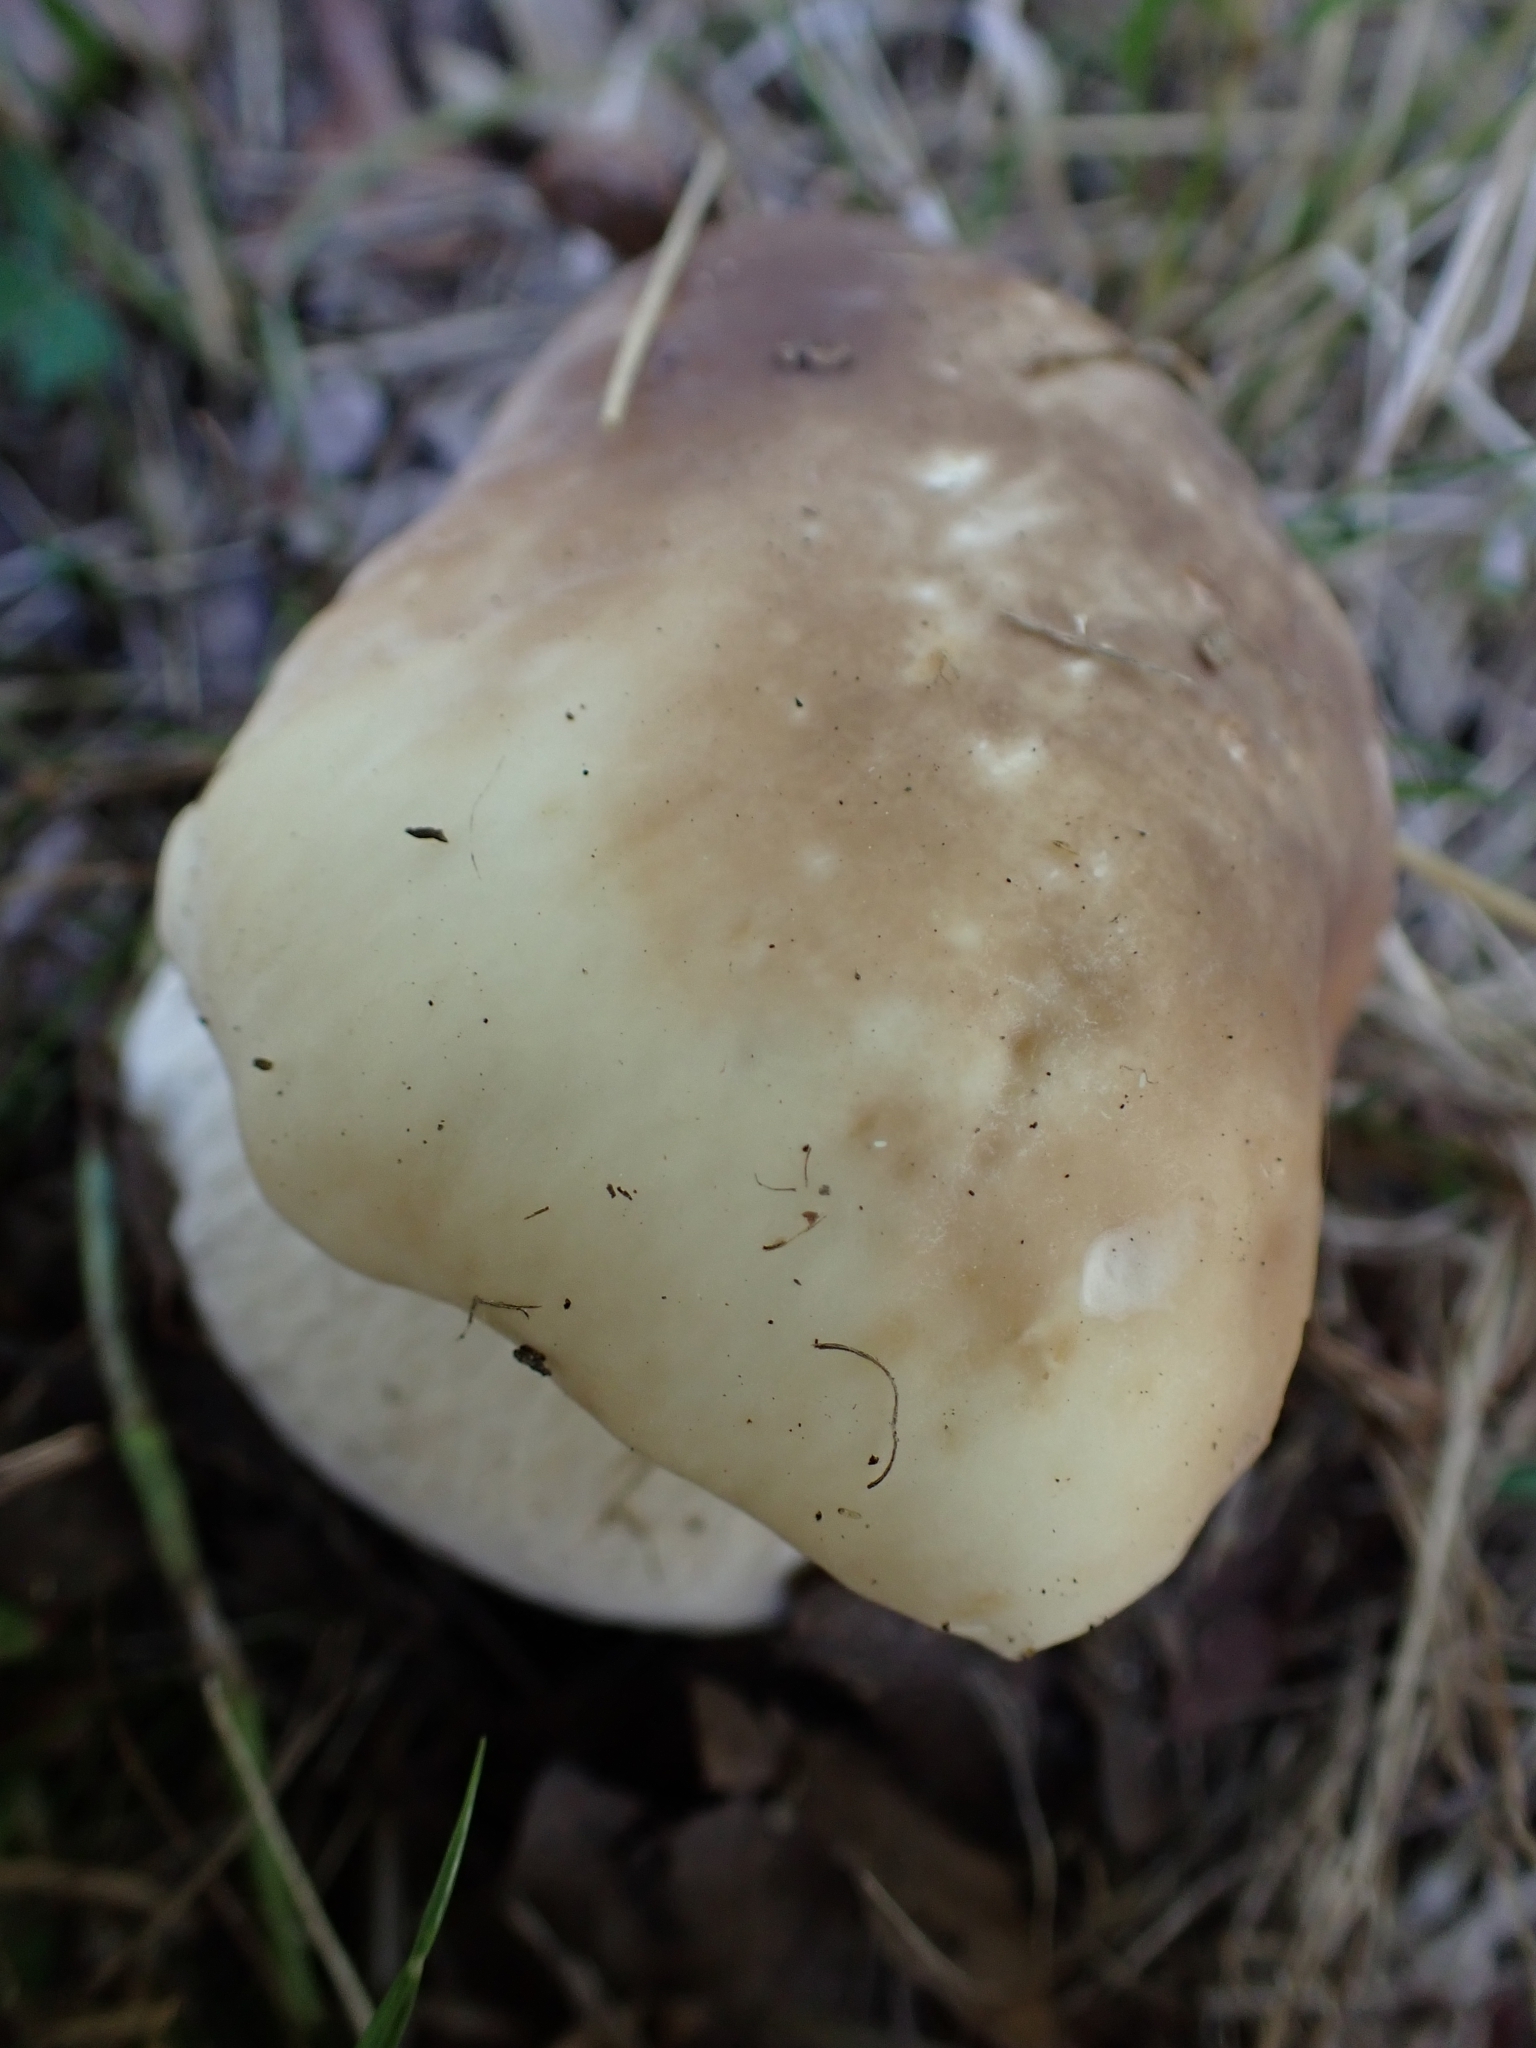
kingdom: Fungi
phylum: Basidiomycota
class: Agaricomycetes
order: Boletales
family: Boletaceae
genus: Boletus
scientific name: Boletus edulis
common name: Cep
